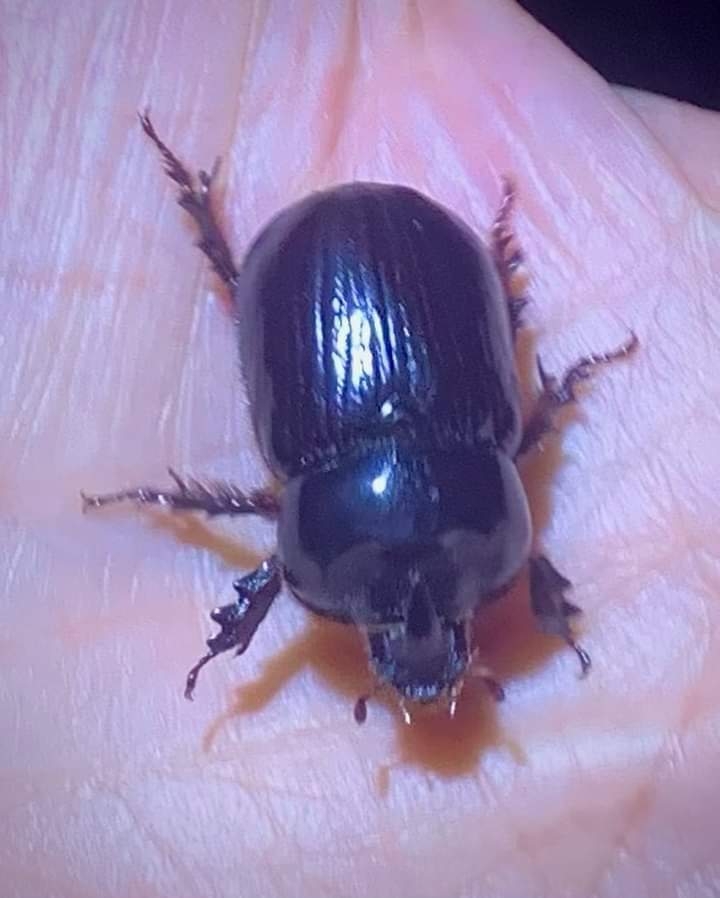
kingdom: Animalia
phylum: Arthropoda
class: Insecta
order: Coleoptera
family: Scarabaeidae
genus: Xyloryctes
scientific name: Xyloryctes jamaicensis
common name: Eastern rhinoceros beetle
